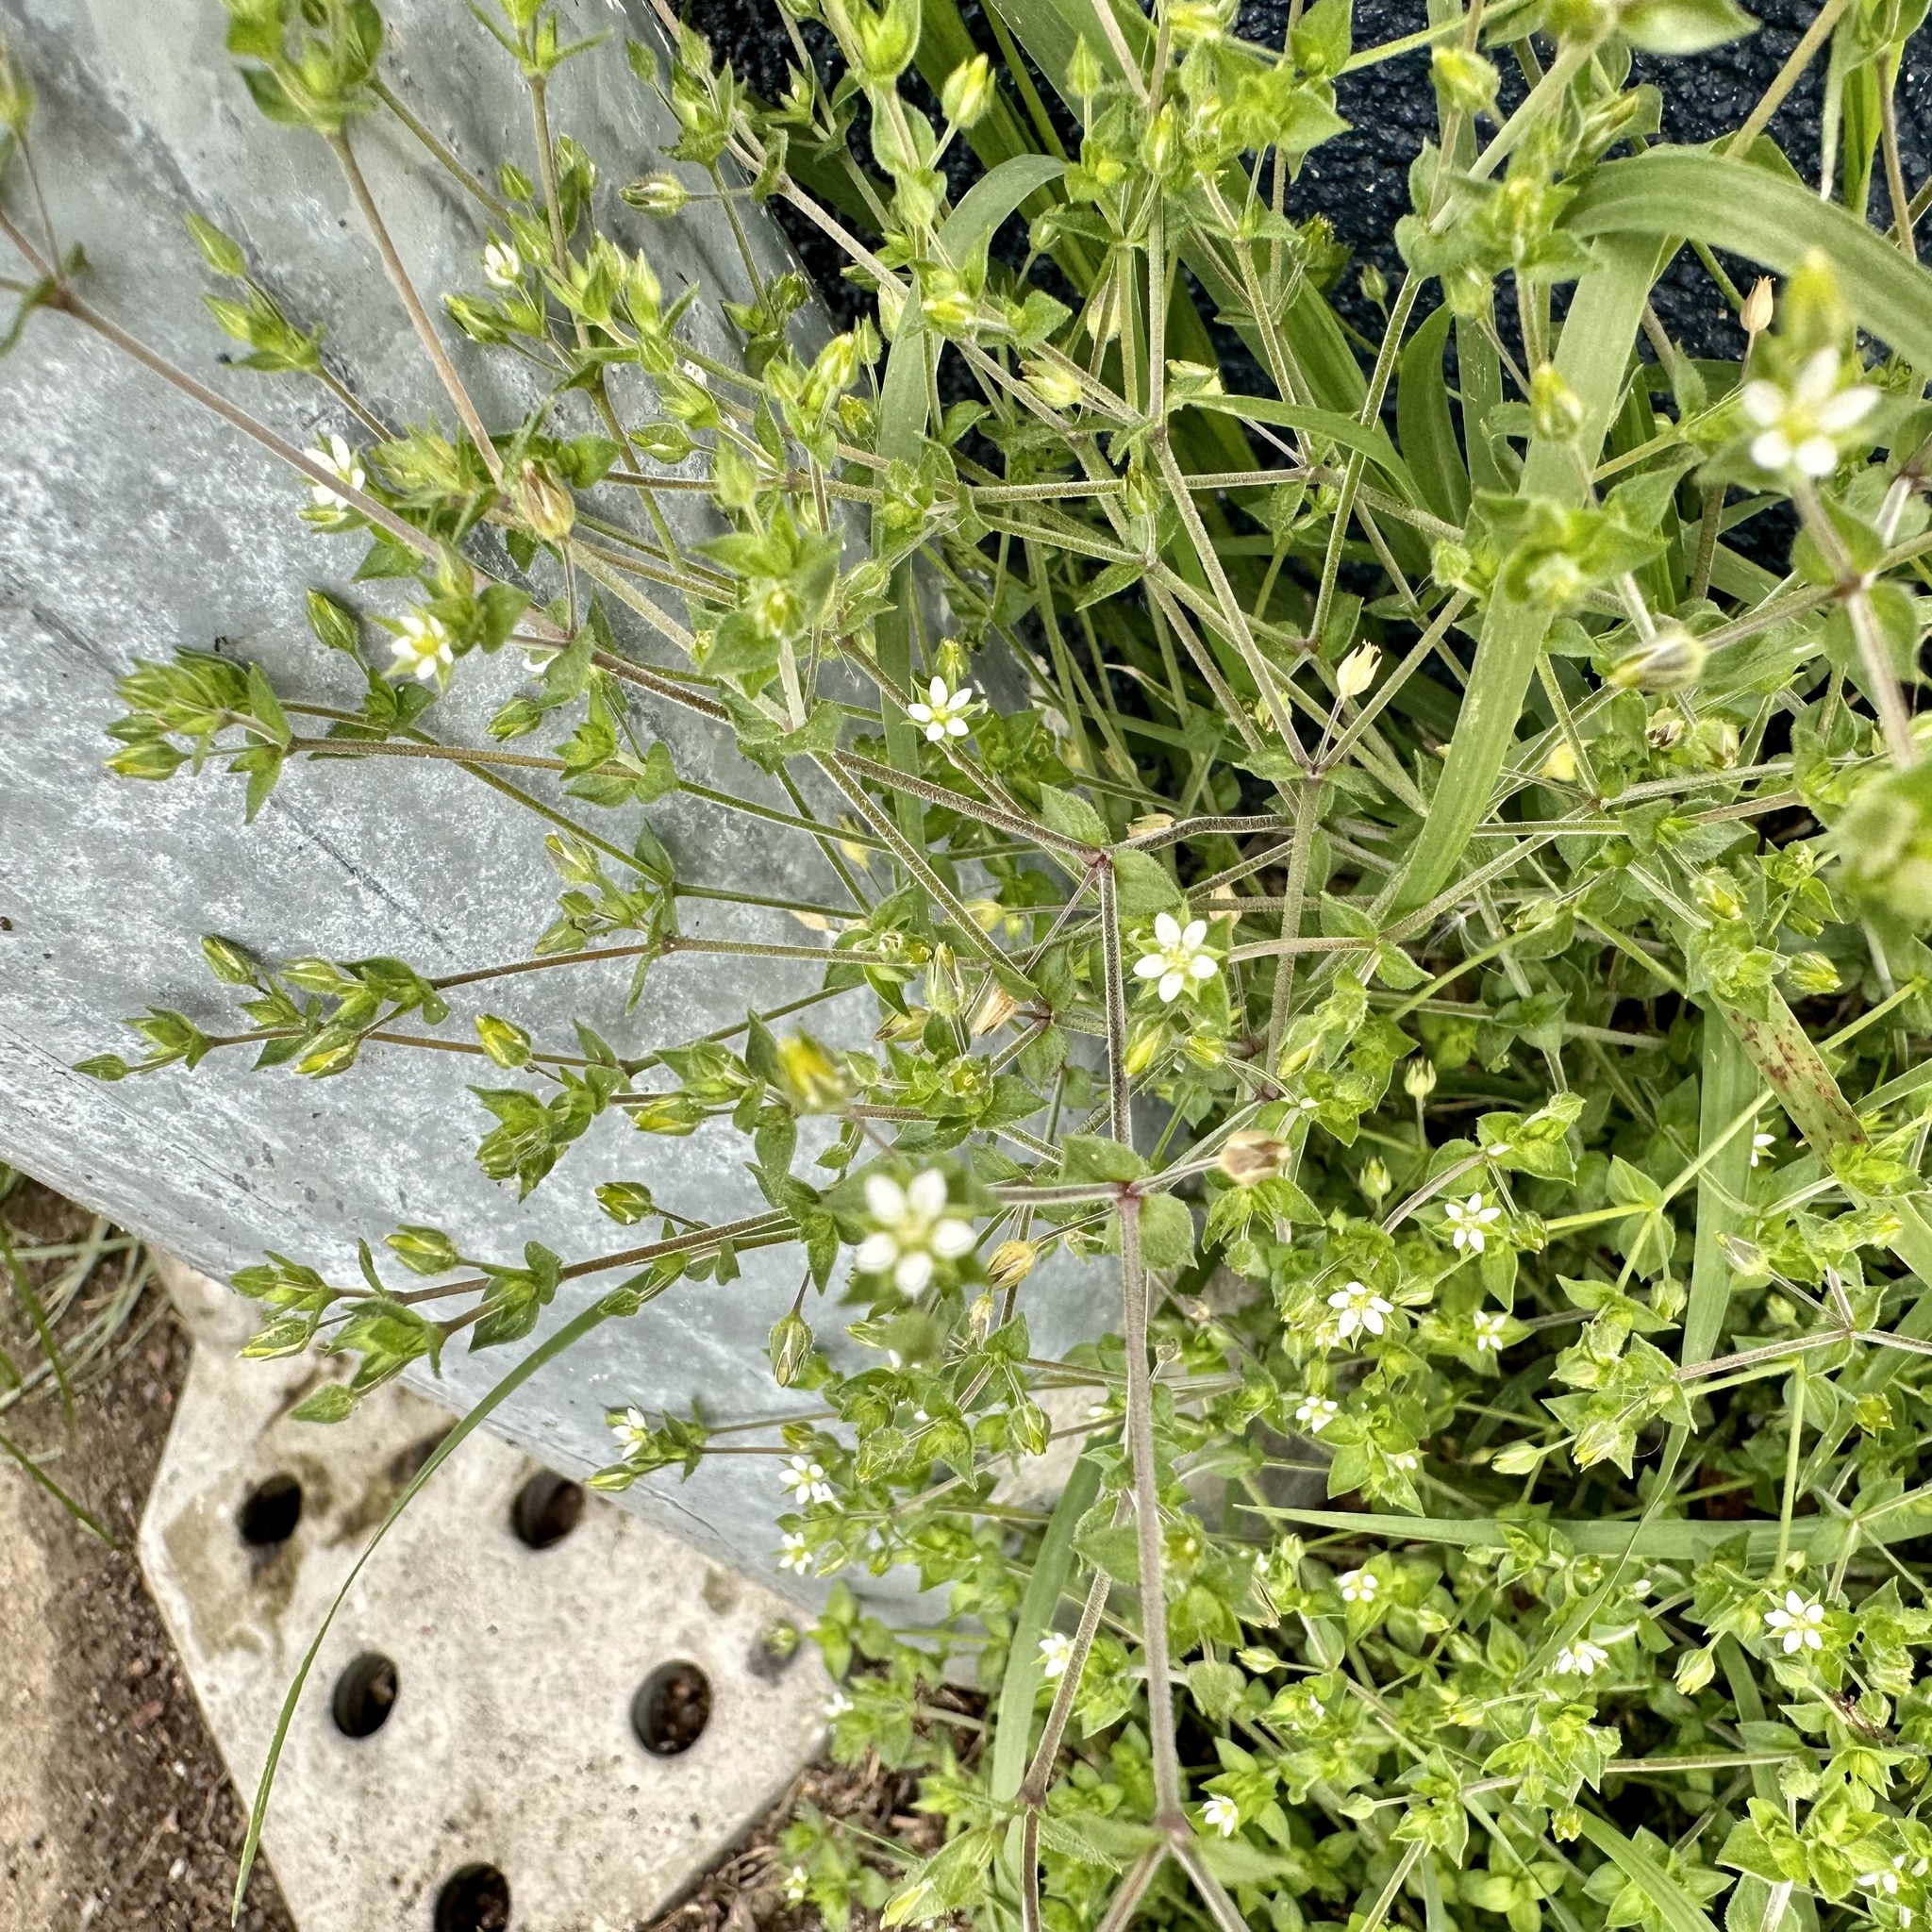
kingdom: Plantae
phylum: Tracheophyta
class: Magnoliopsida
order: Caryophyllales
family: Caryophyllaceae
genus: Arenaria
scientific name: Arenaria serpyllifolia
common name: Thyme-leaved sandwort
